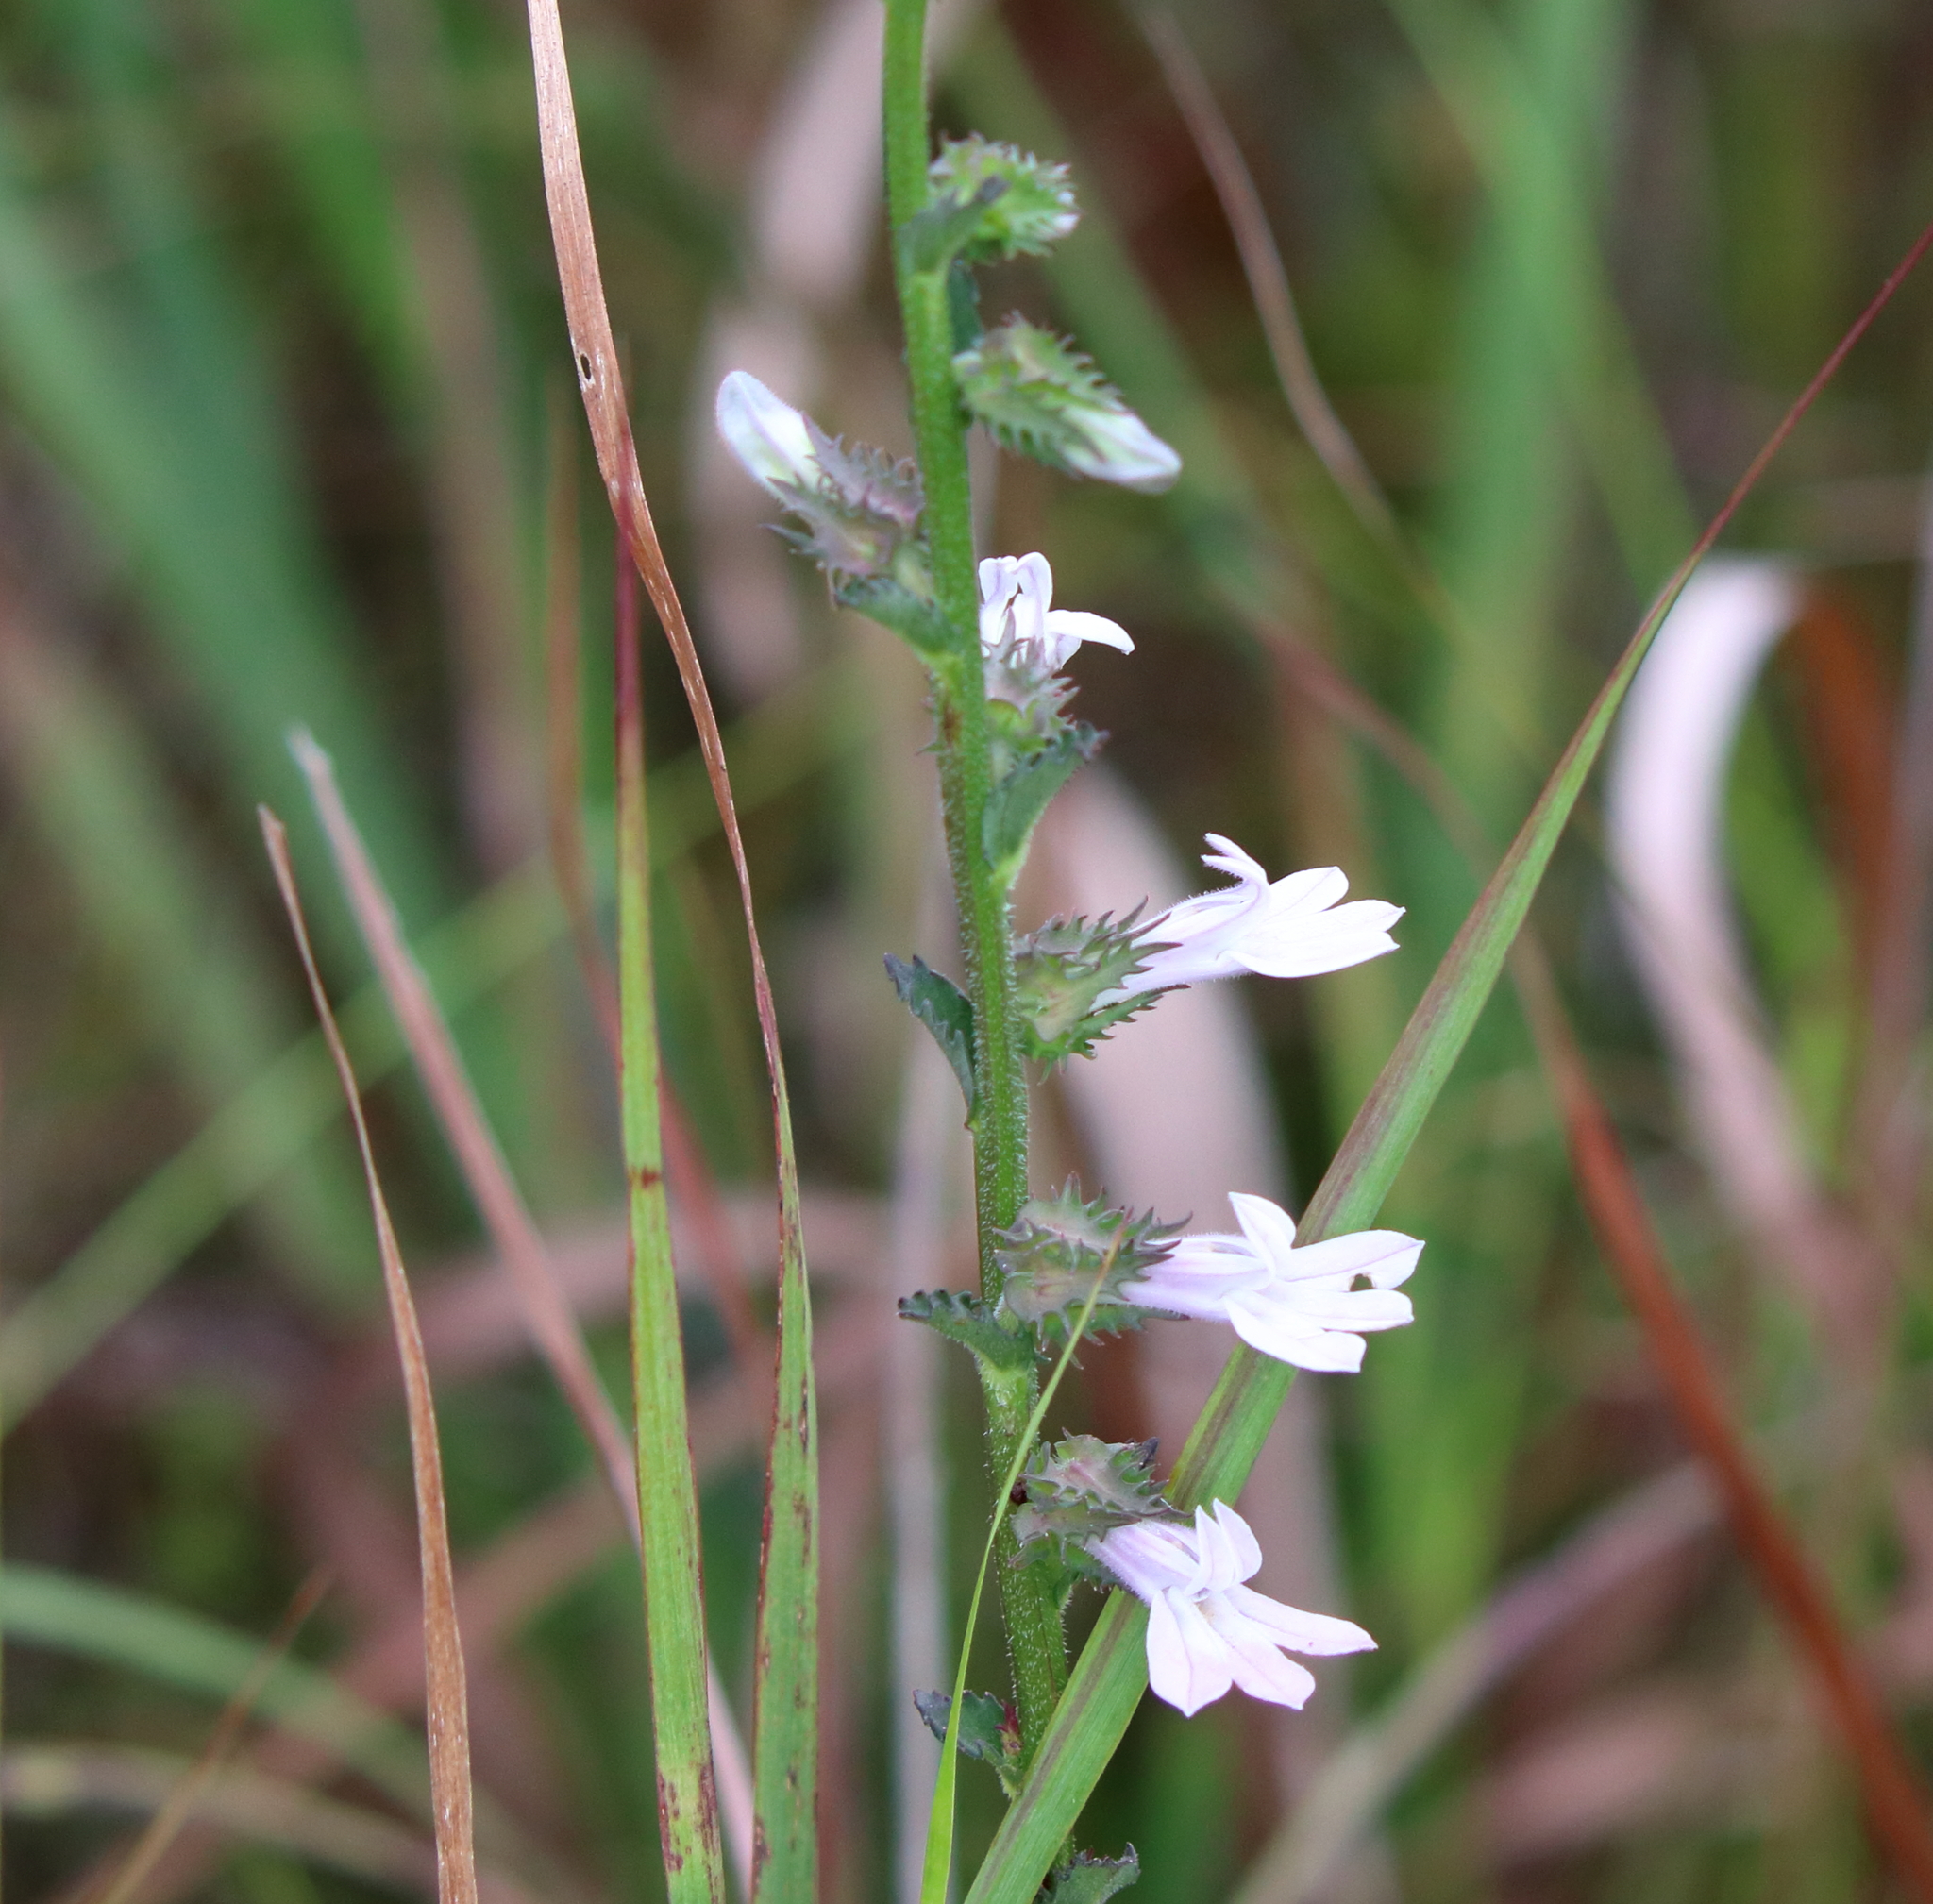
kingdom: Plantae
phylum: Tracheophyta
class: Magnoliopsida
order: Asterales
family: Campanulaceae
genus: Lobelia
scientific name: Lobelia brevifolia
